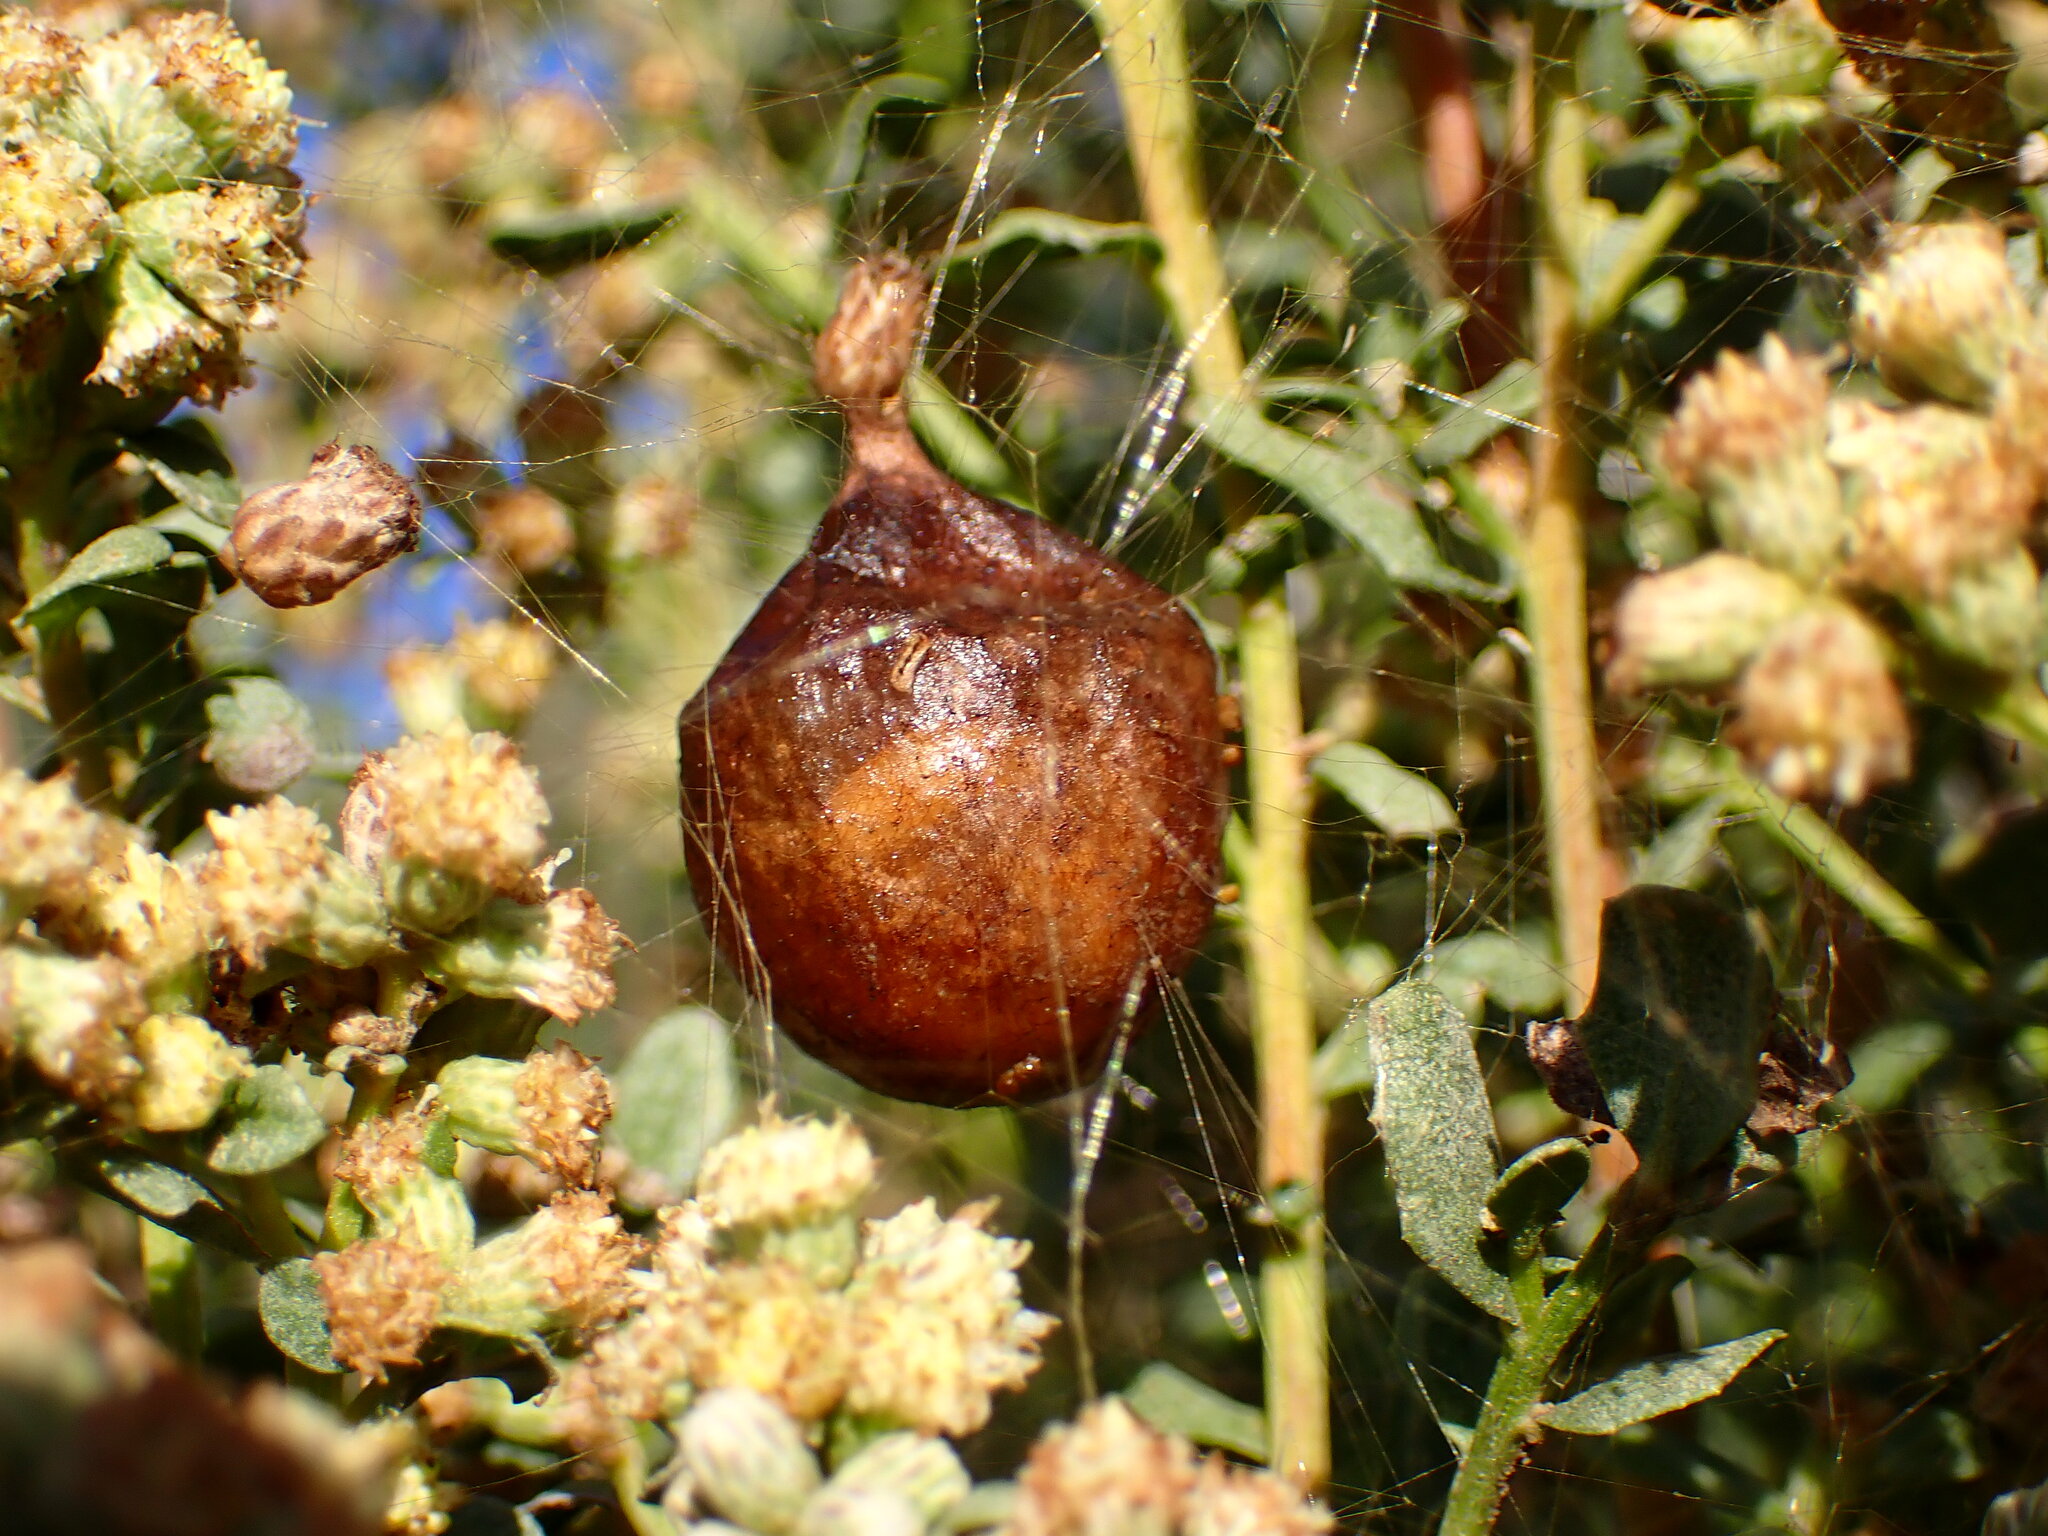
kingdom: Animalia
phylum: Arthropoda
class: Arachnida
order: Araneae
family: Araneidae
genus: Argiope
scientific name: Argiope aurantia
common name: Orb weavers
